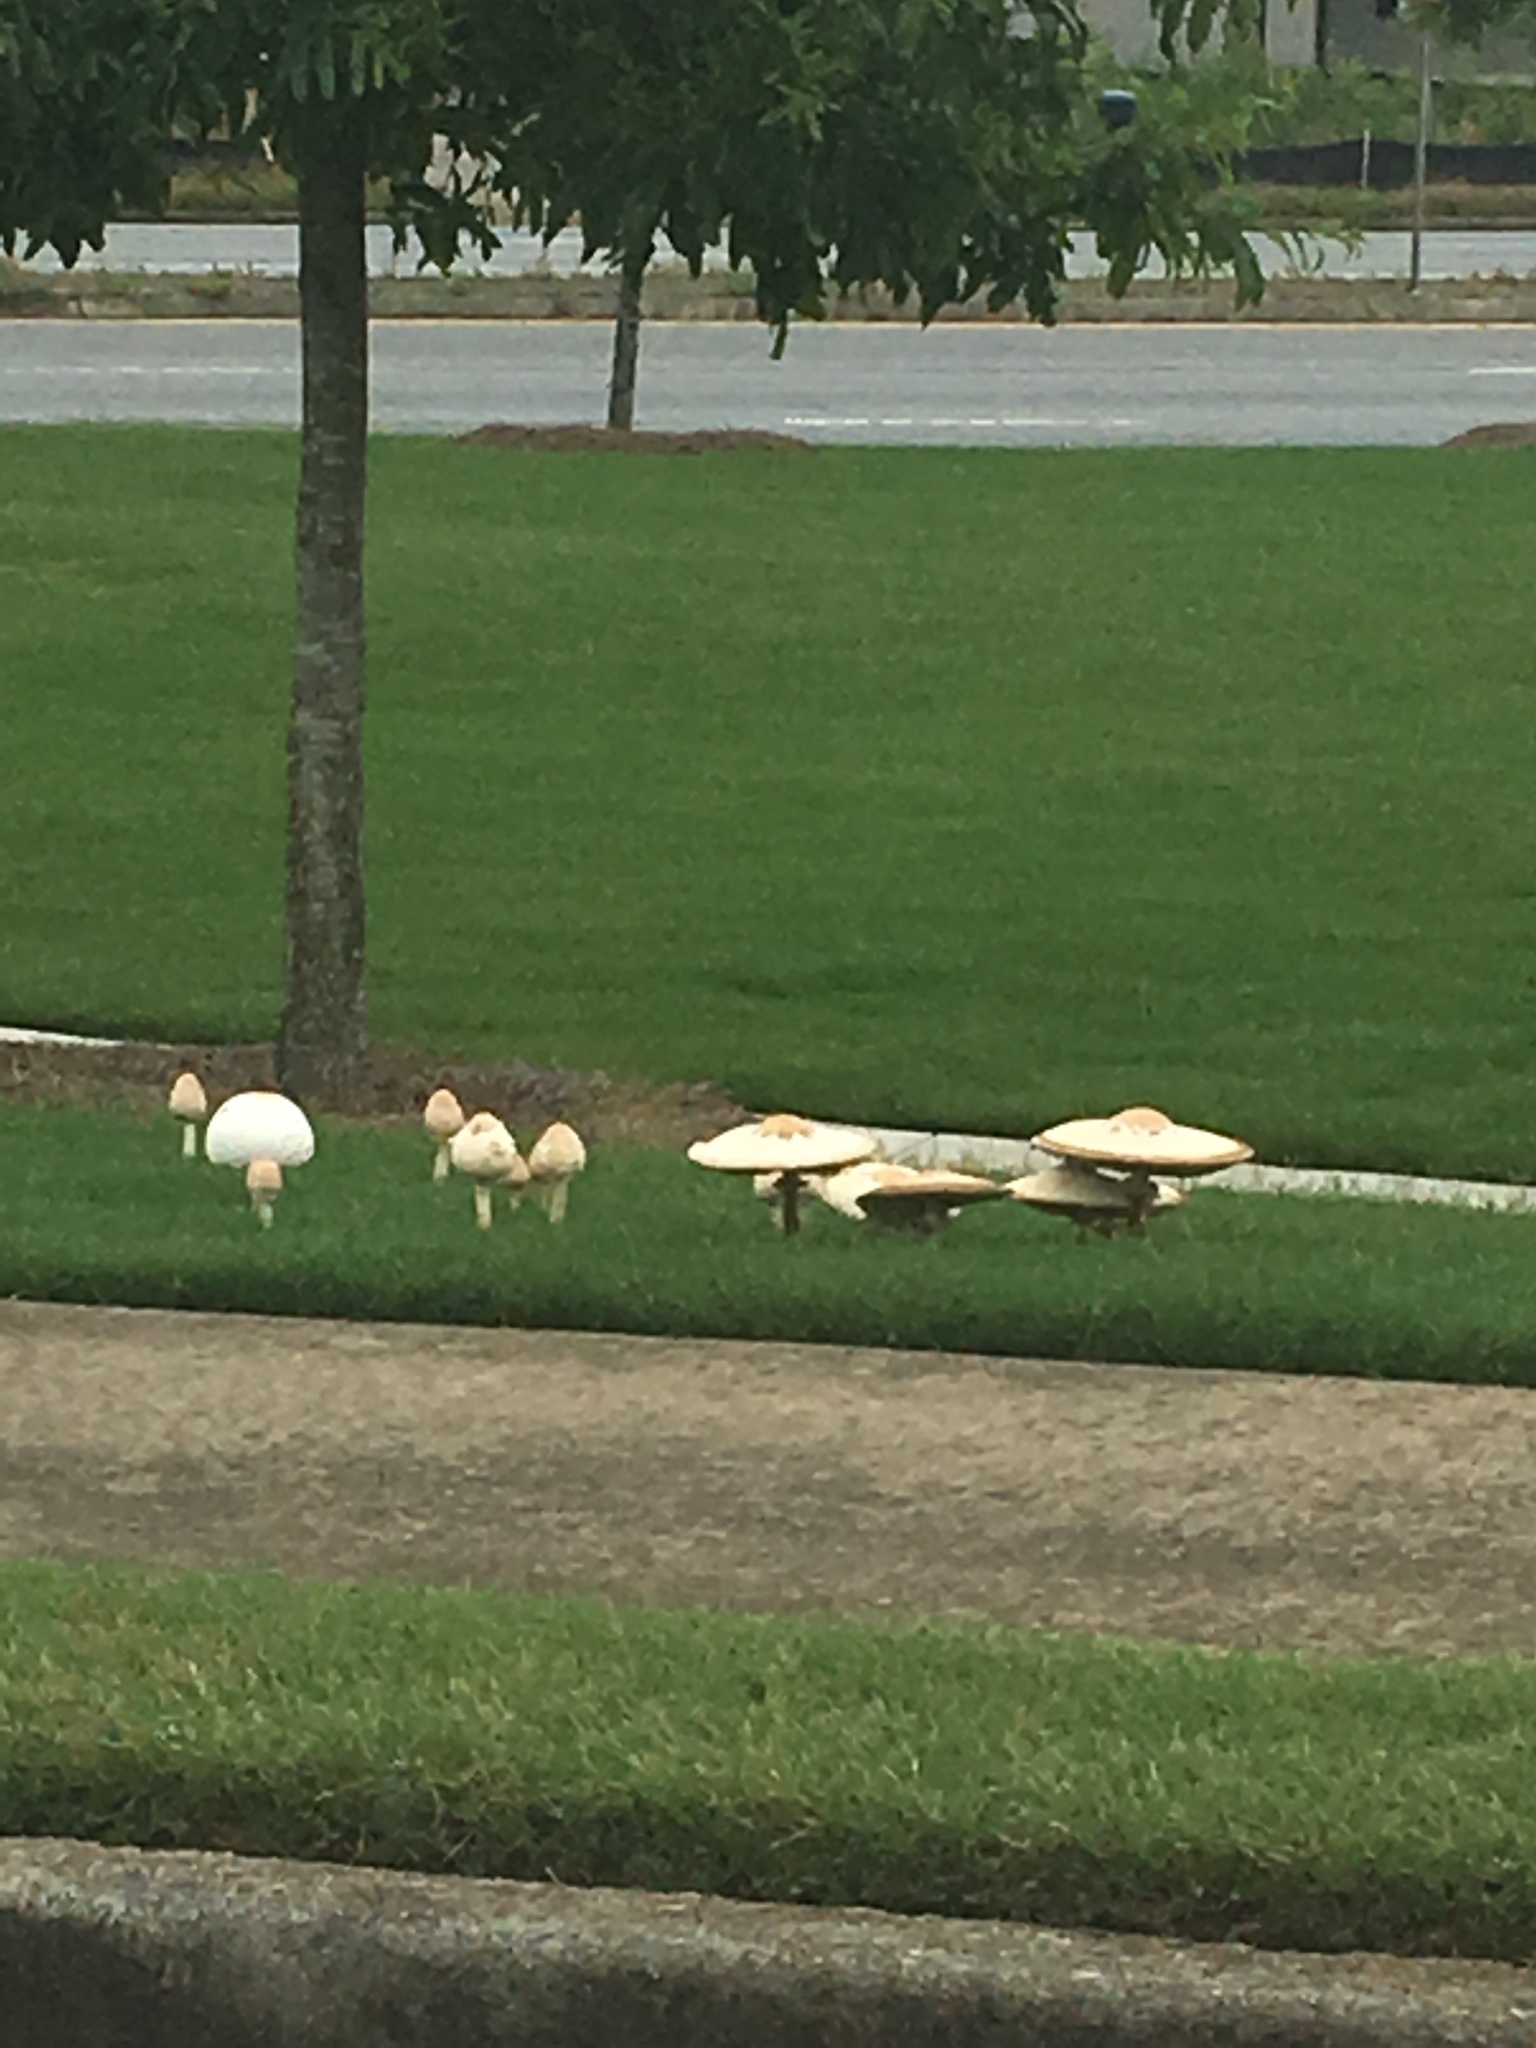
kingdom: Fungi
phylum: Basidiomycota
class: Agaricomycetes
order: Agaricales
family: Agaricaceae
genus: Chlorophyllum
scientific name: Chlorophyllum molybdites
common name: False parasol
